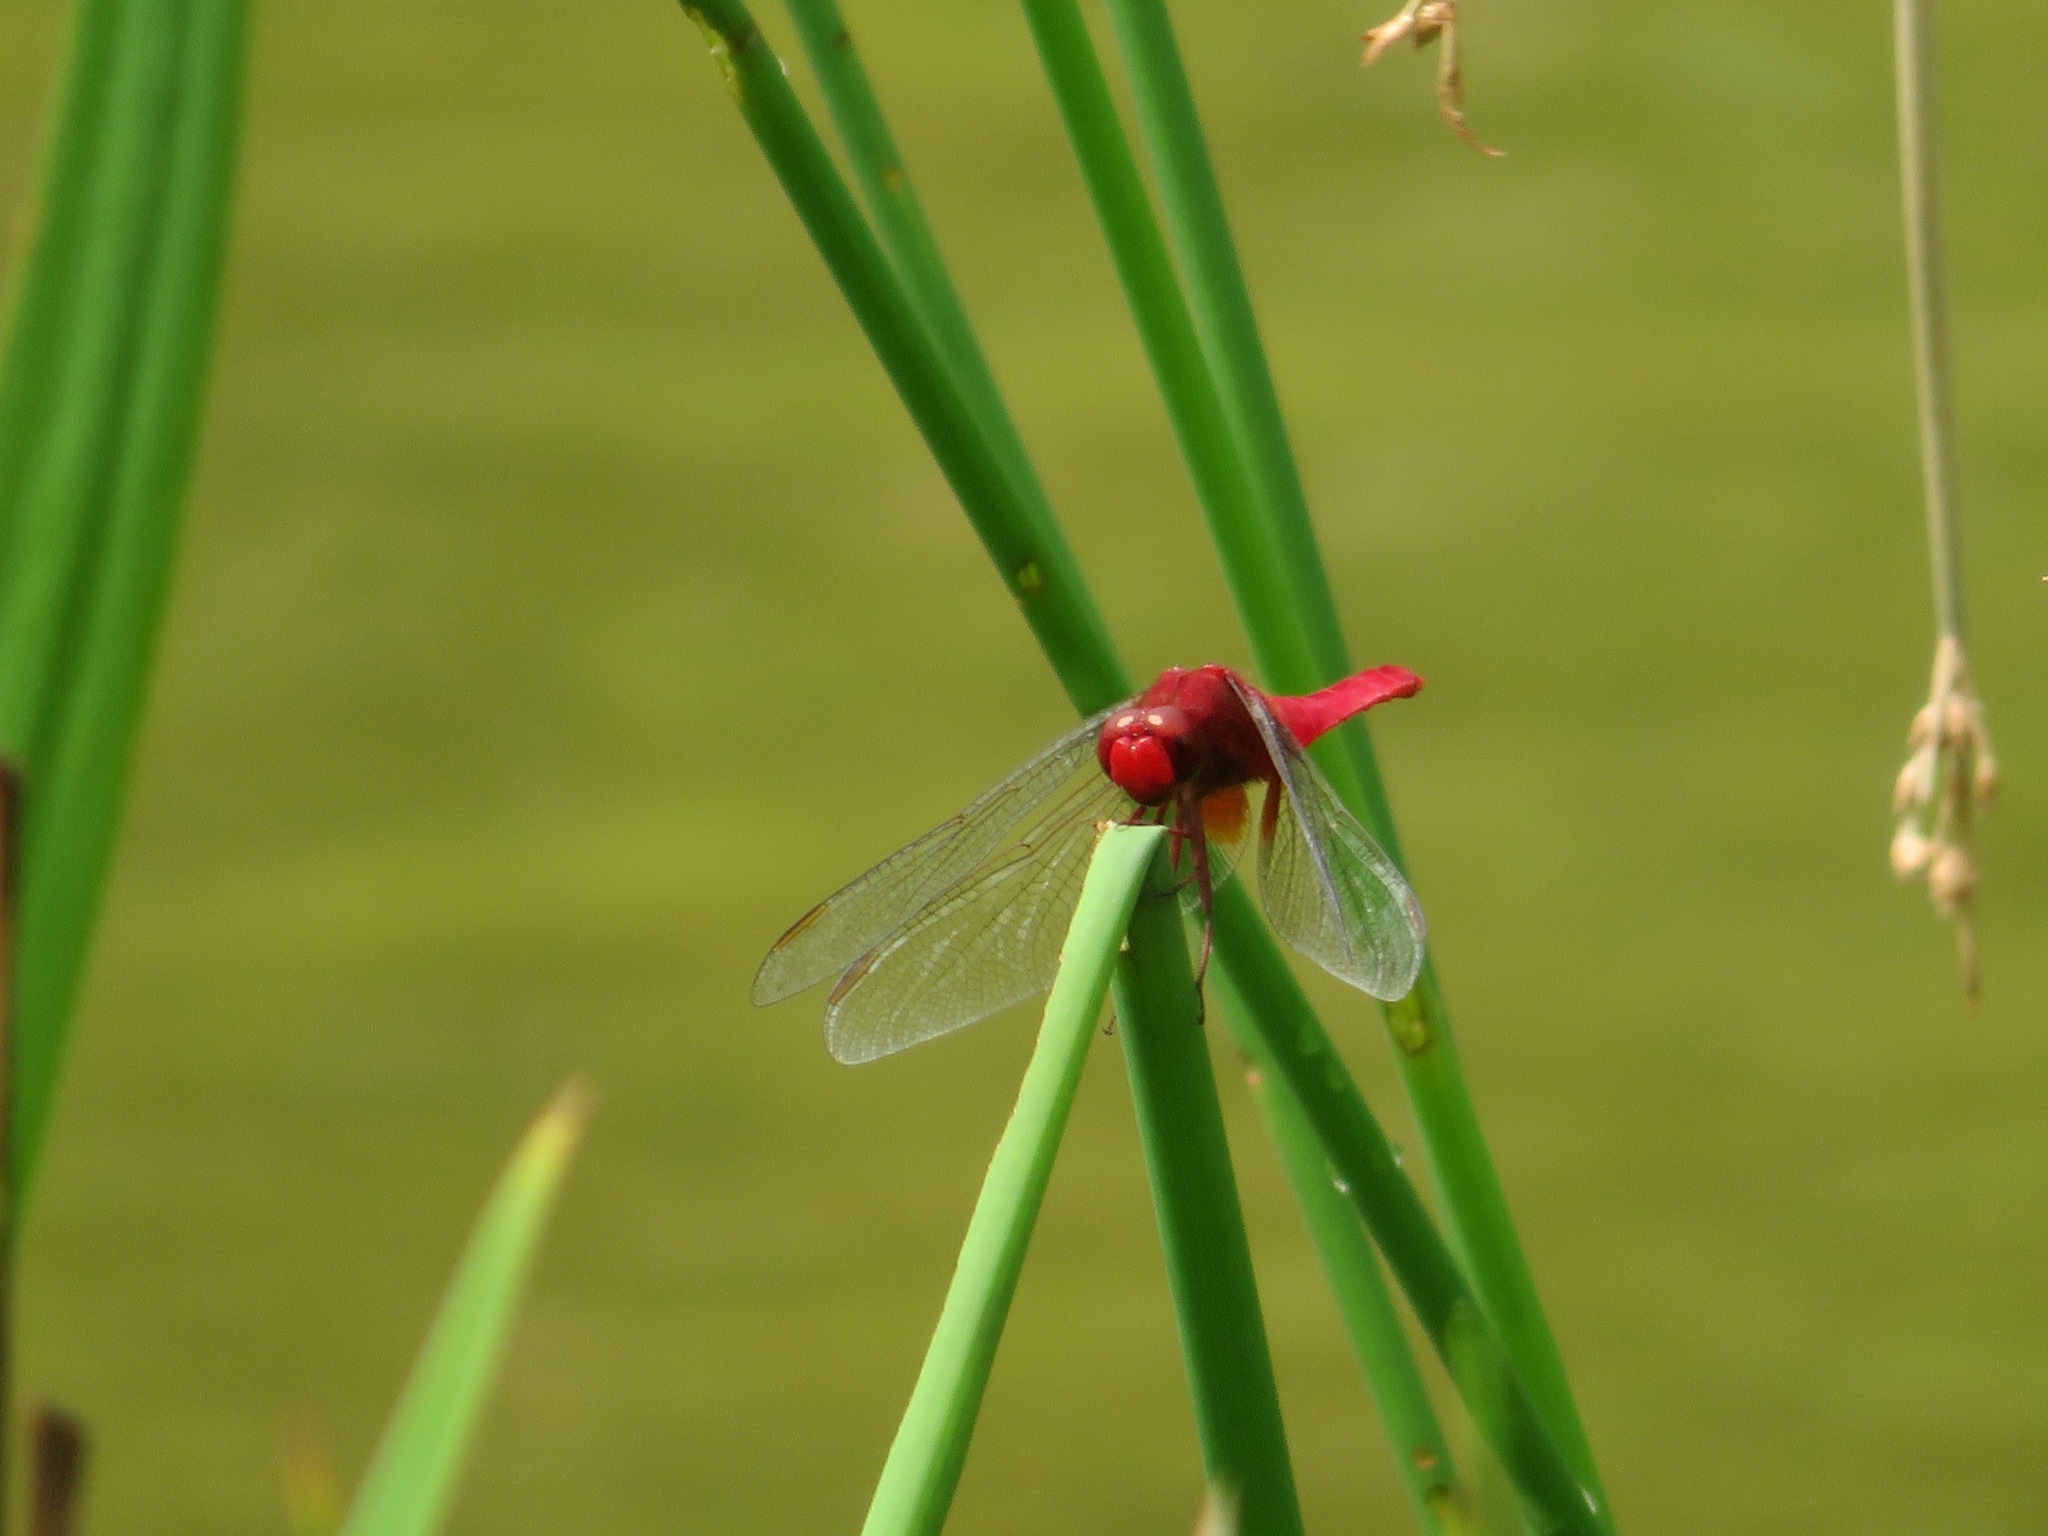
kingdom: Animalia
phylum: Arthropoda
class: Insecta
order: Odonata
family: Libellulidae
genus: Crocothemis
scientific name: Crocothemis servilia
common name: Scarlet skimmer
